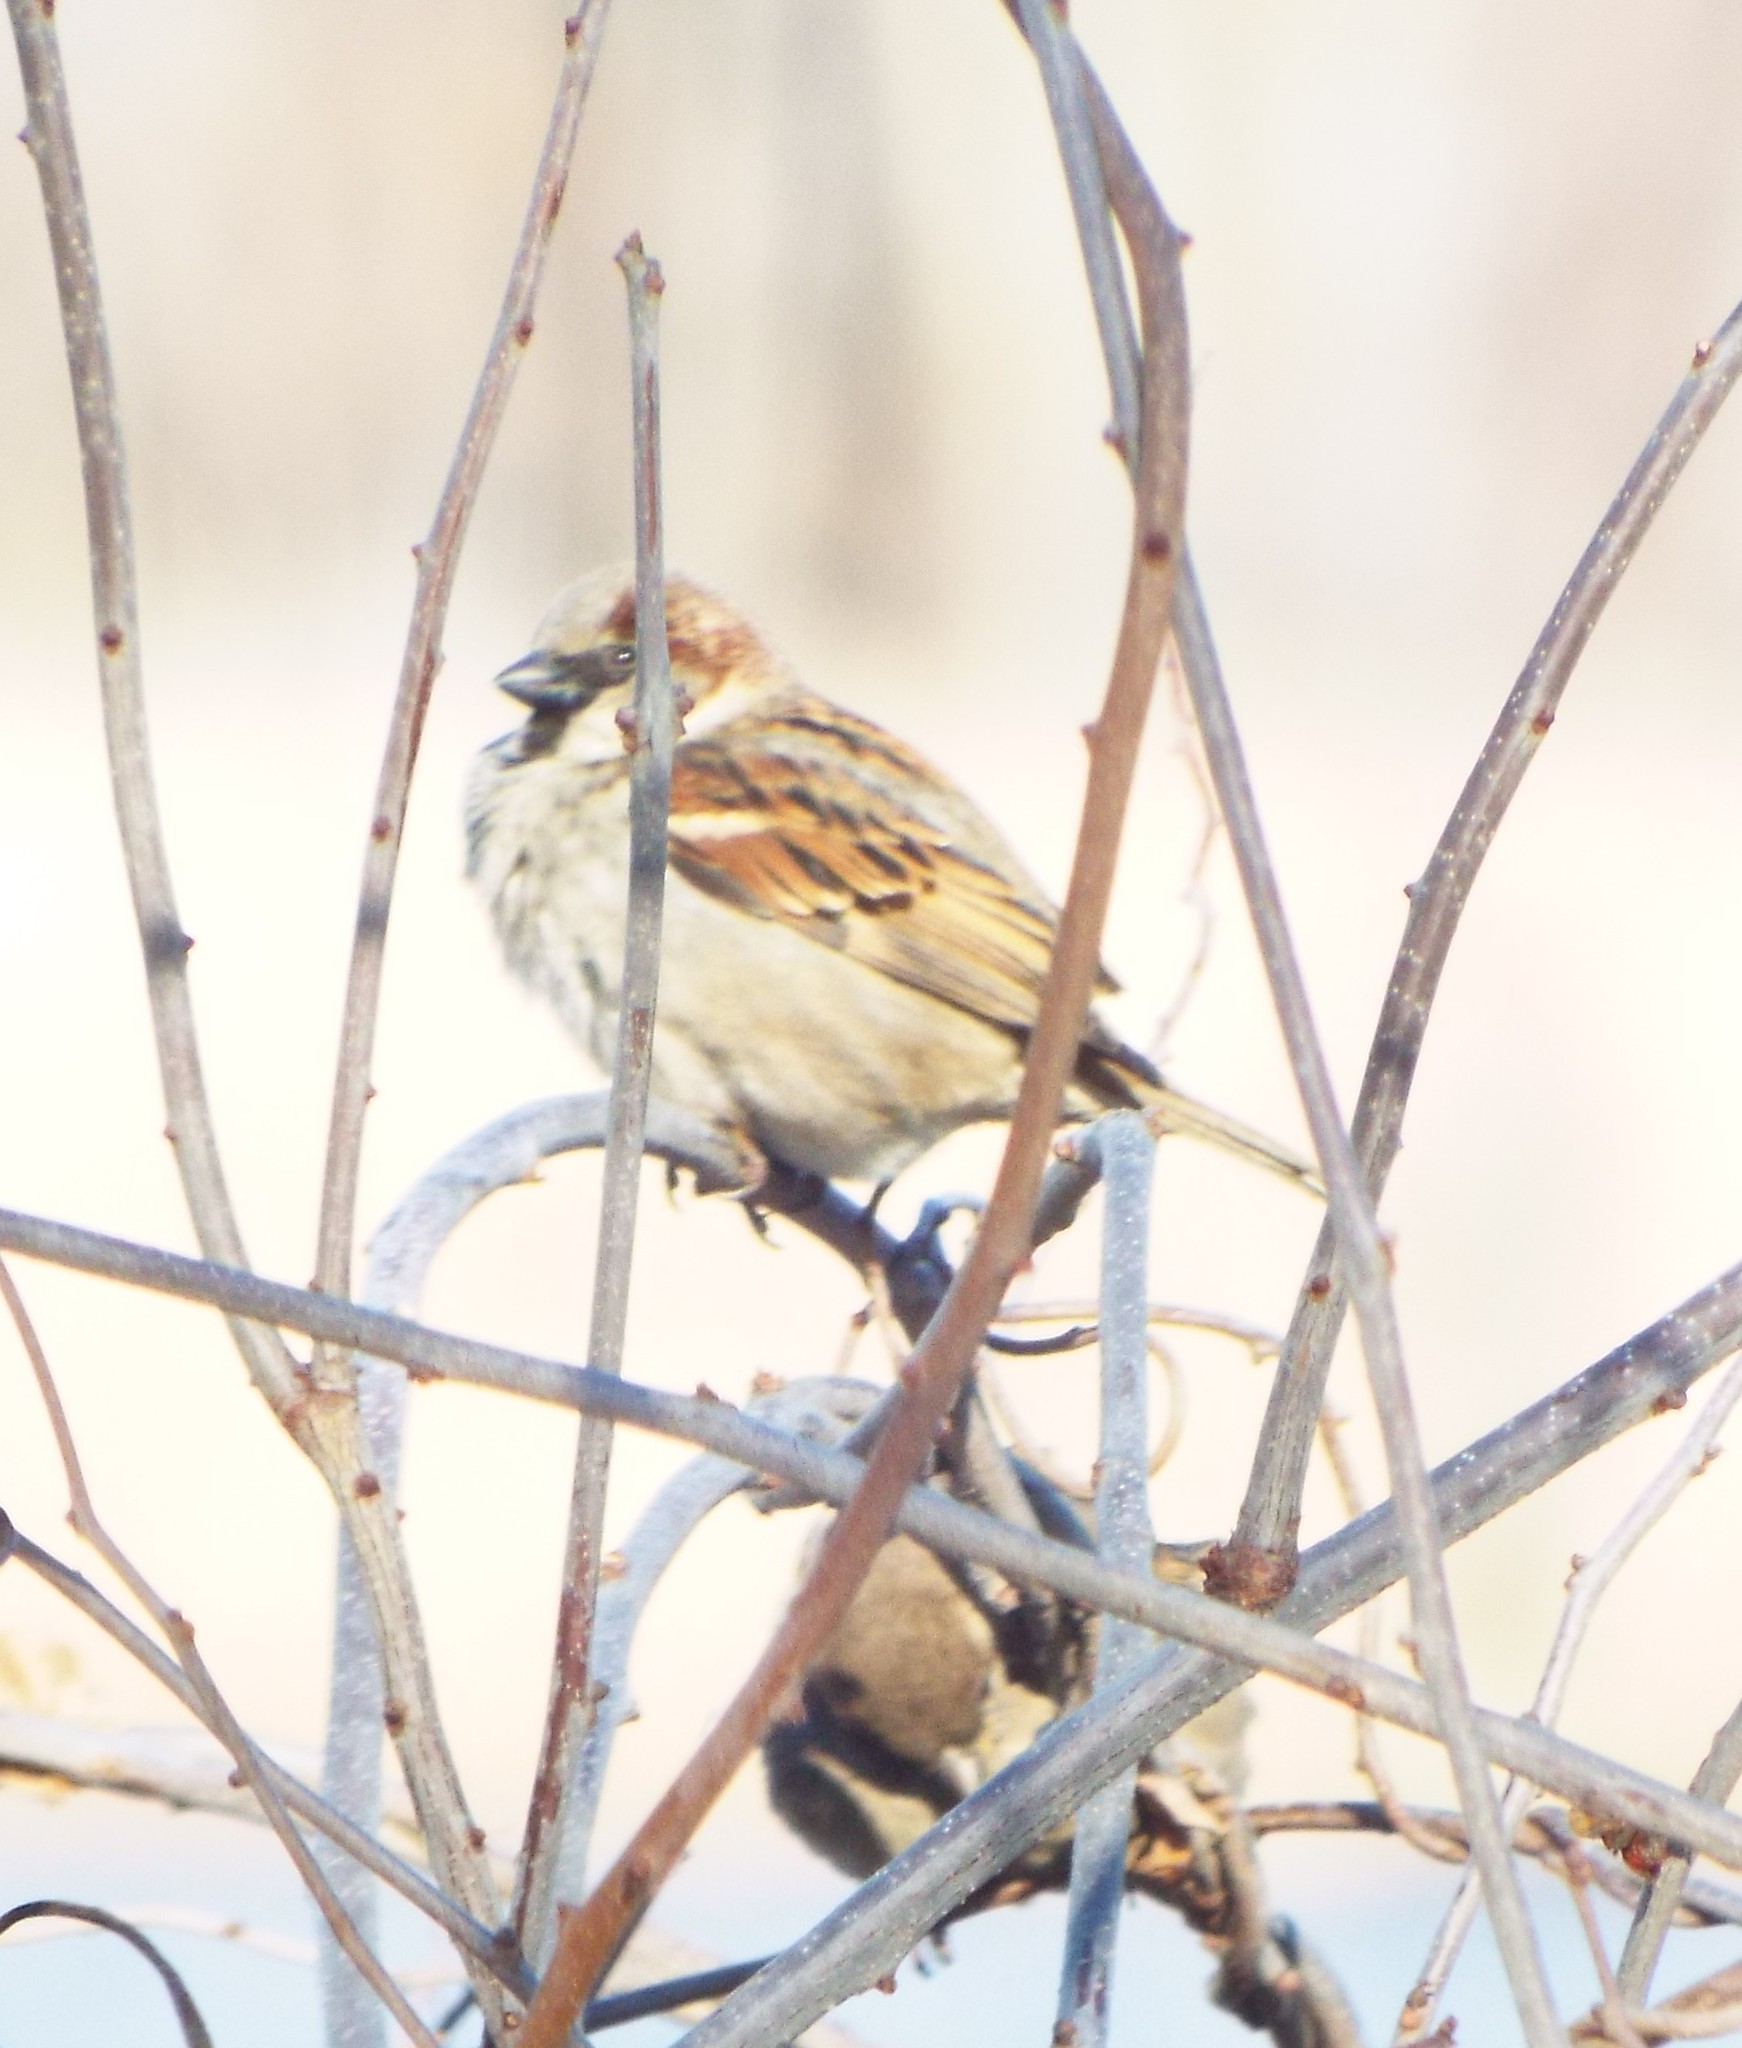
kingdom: Animalia
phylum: Chordata
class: Aves
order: Passeriformes
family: Passeridae
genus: Passer
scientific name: Passer domesticus
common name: House sparrow
